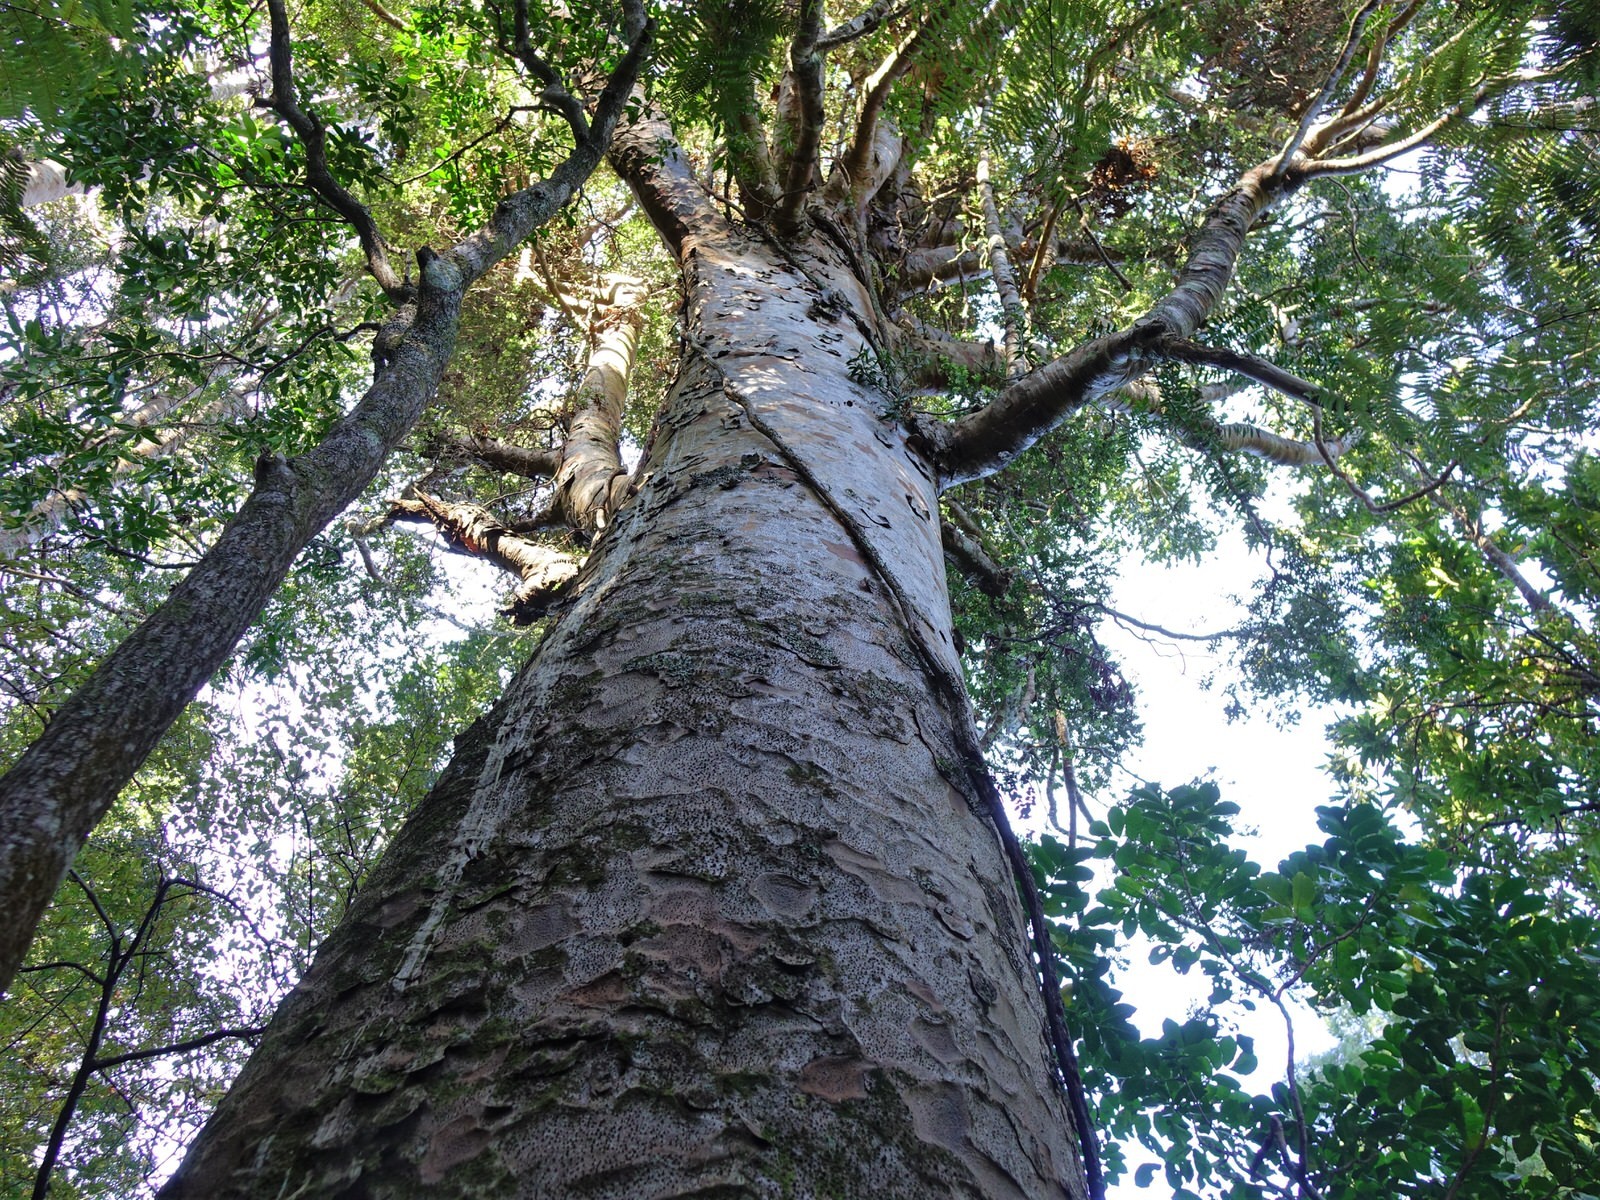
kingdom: Plantae
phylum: Tracheophyta
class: Pinopsida
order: Pinales
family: Araucariaceae
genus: Agathis
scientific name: Agathis australis
